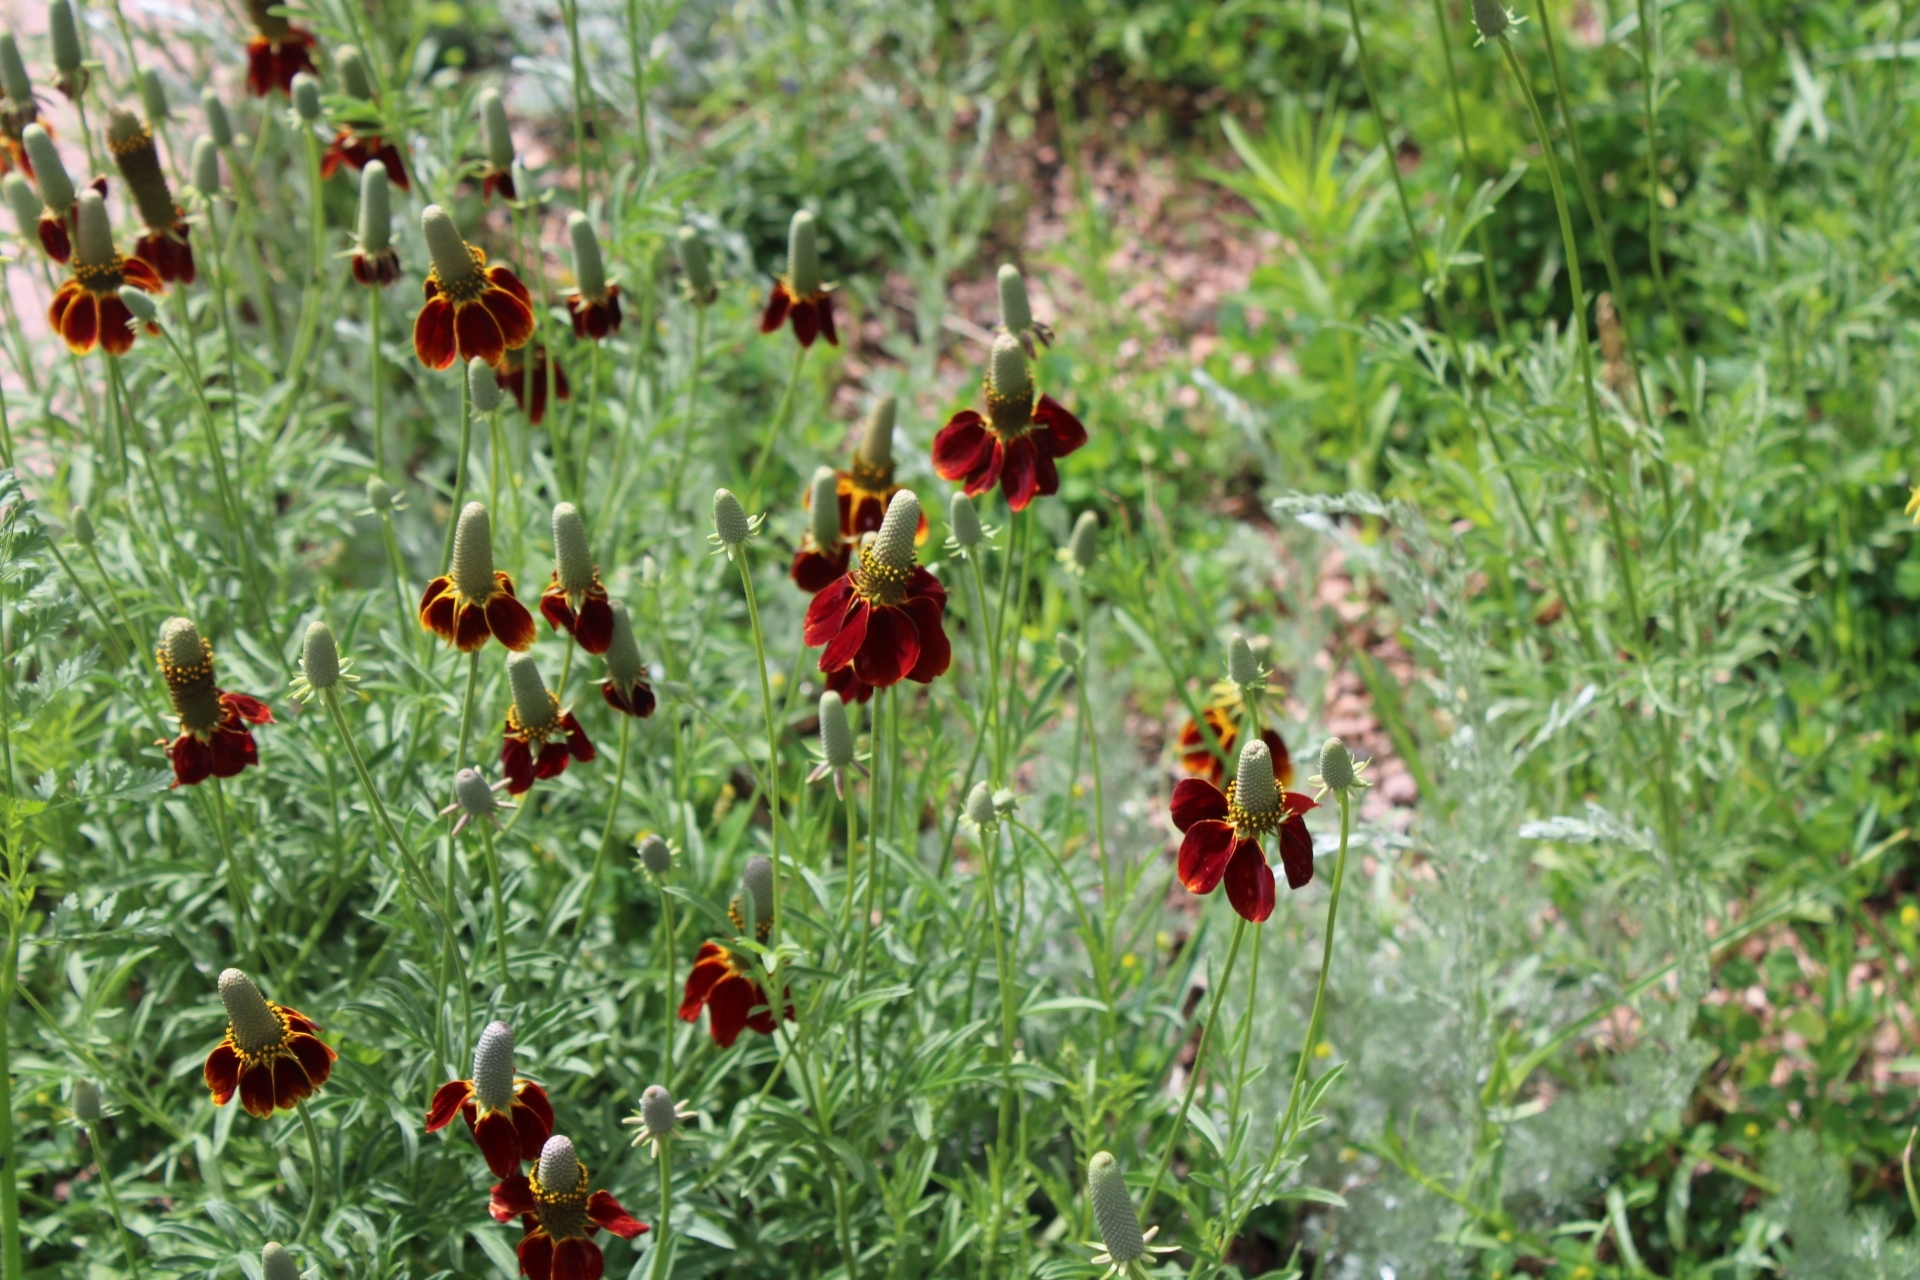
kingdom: Plantae
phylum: Tracheophyta
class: Magnoliopsida
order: Asterales
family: Asteraceae
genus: Ratibida
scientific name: Ratibida columnifera
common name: Prairie coneflower
